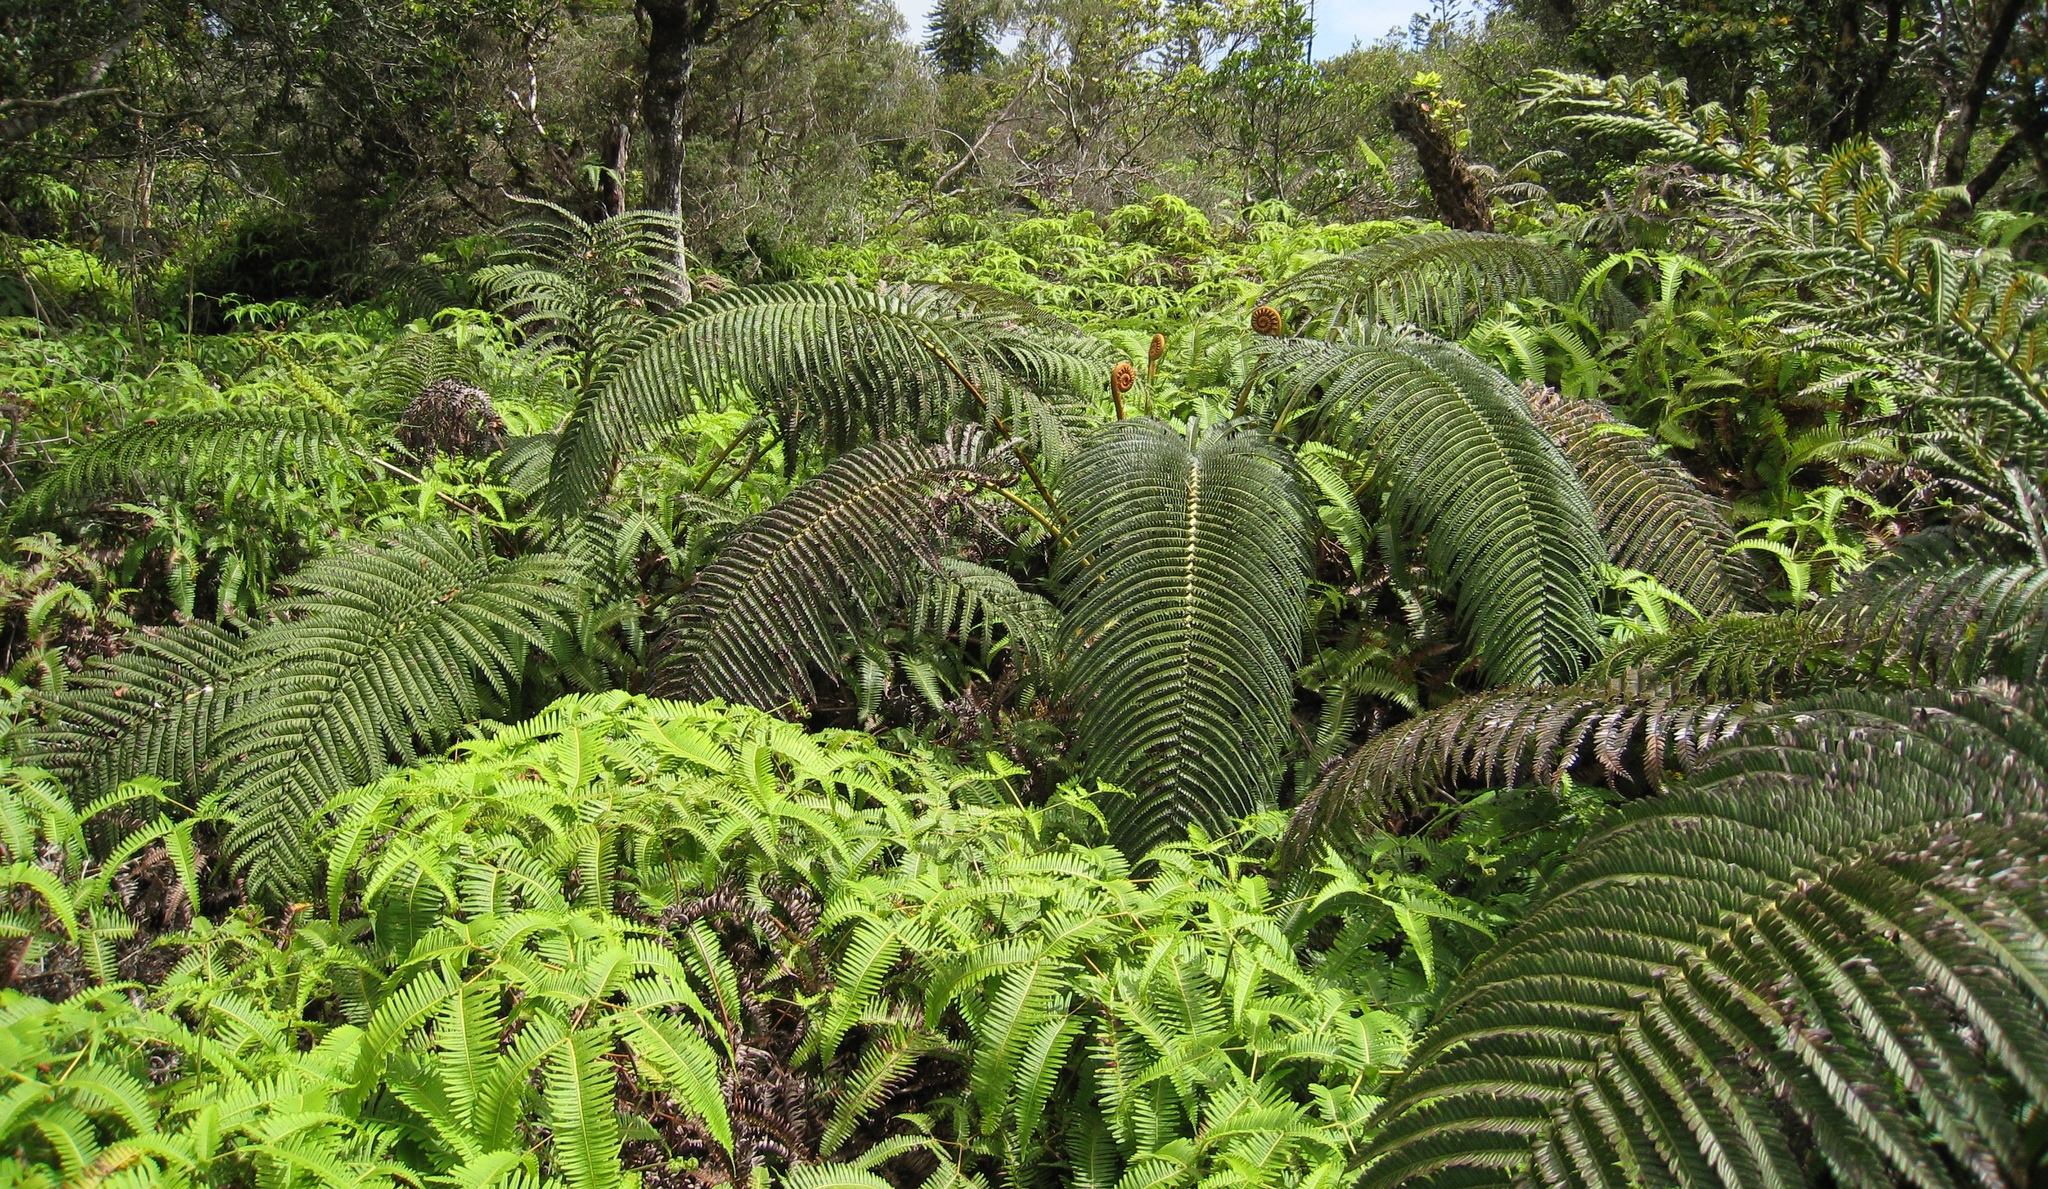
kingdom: Plantae
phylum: Tracheophyta
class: Polypodiopsida
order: Polypodiales
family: Blechnaceae
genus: Sadleria
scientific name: Sadleria cyatheoides
